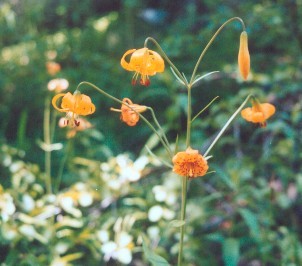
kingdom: Plantae
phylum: Tracheophyta
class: Liliopsida
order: Liliales
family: Liliaceae
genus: Lilium
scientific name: Lilium kelleyanum
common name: Kelley's lily
